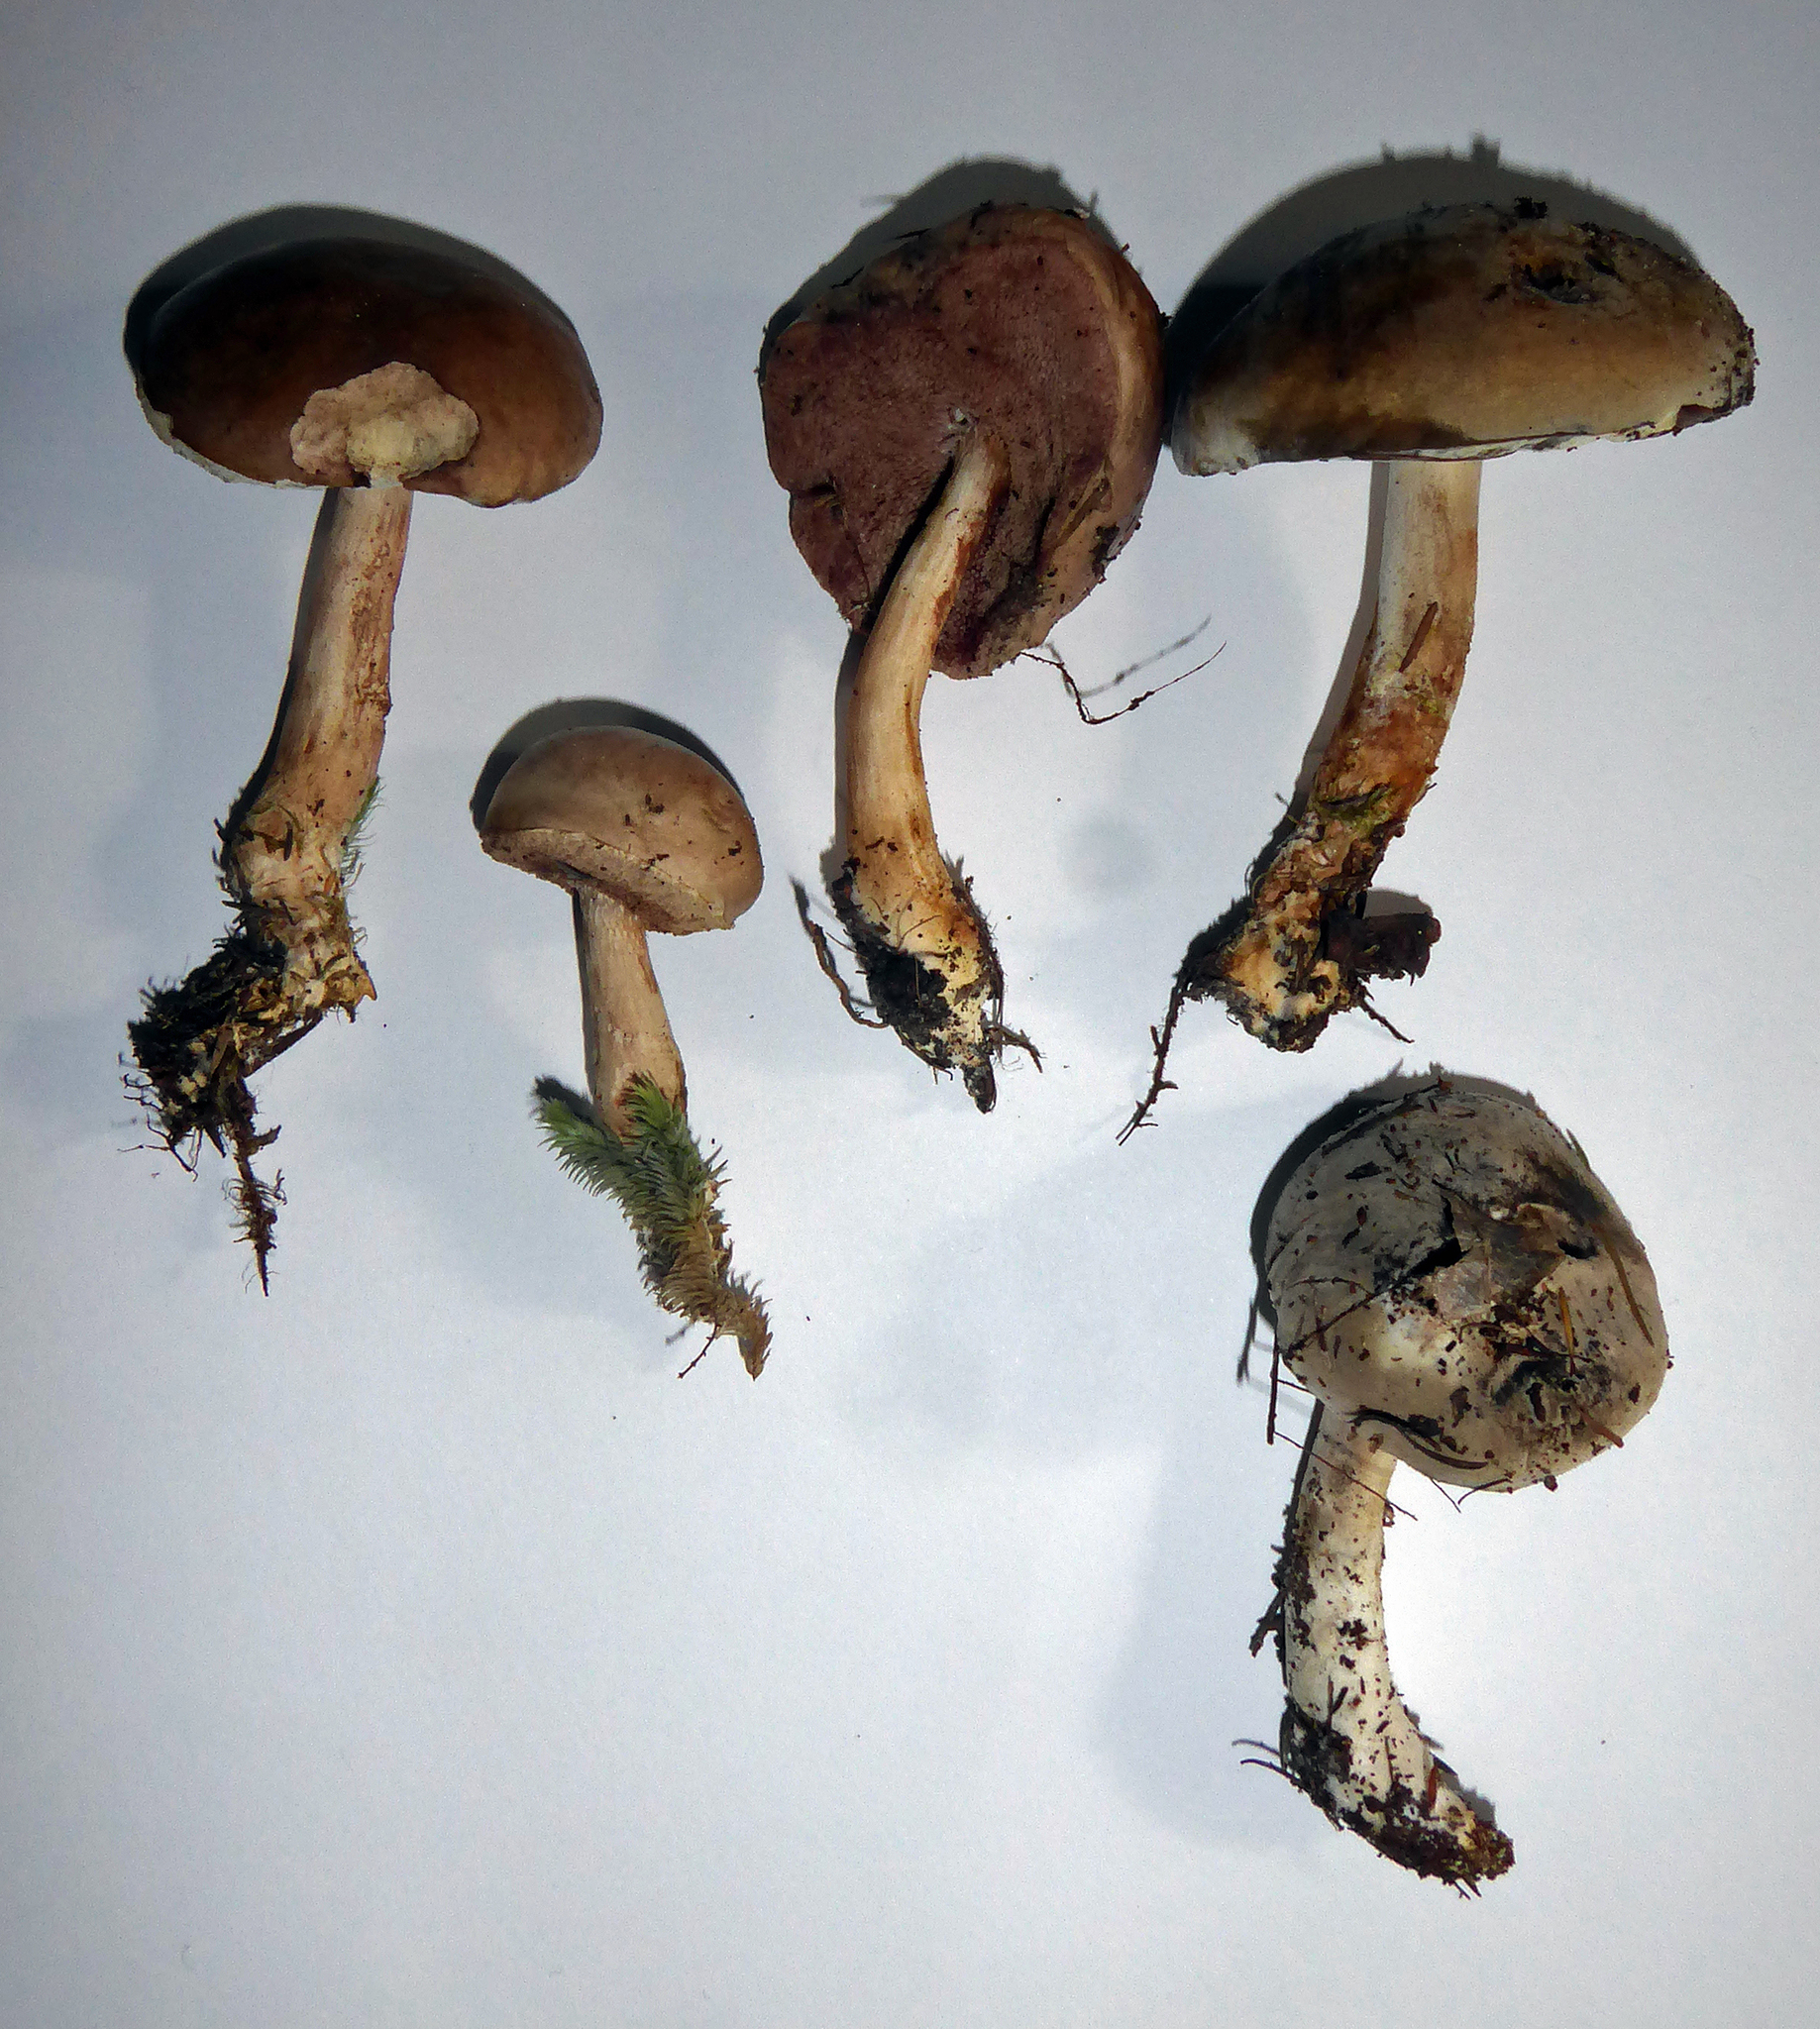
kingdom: Fungi
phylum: Basidiomycota
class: Agaricomycetes
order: Boletales
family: Boletaceae
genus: Fistulinella
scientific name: Fistulinella viscida
